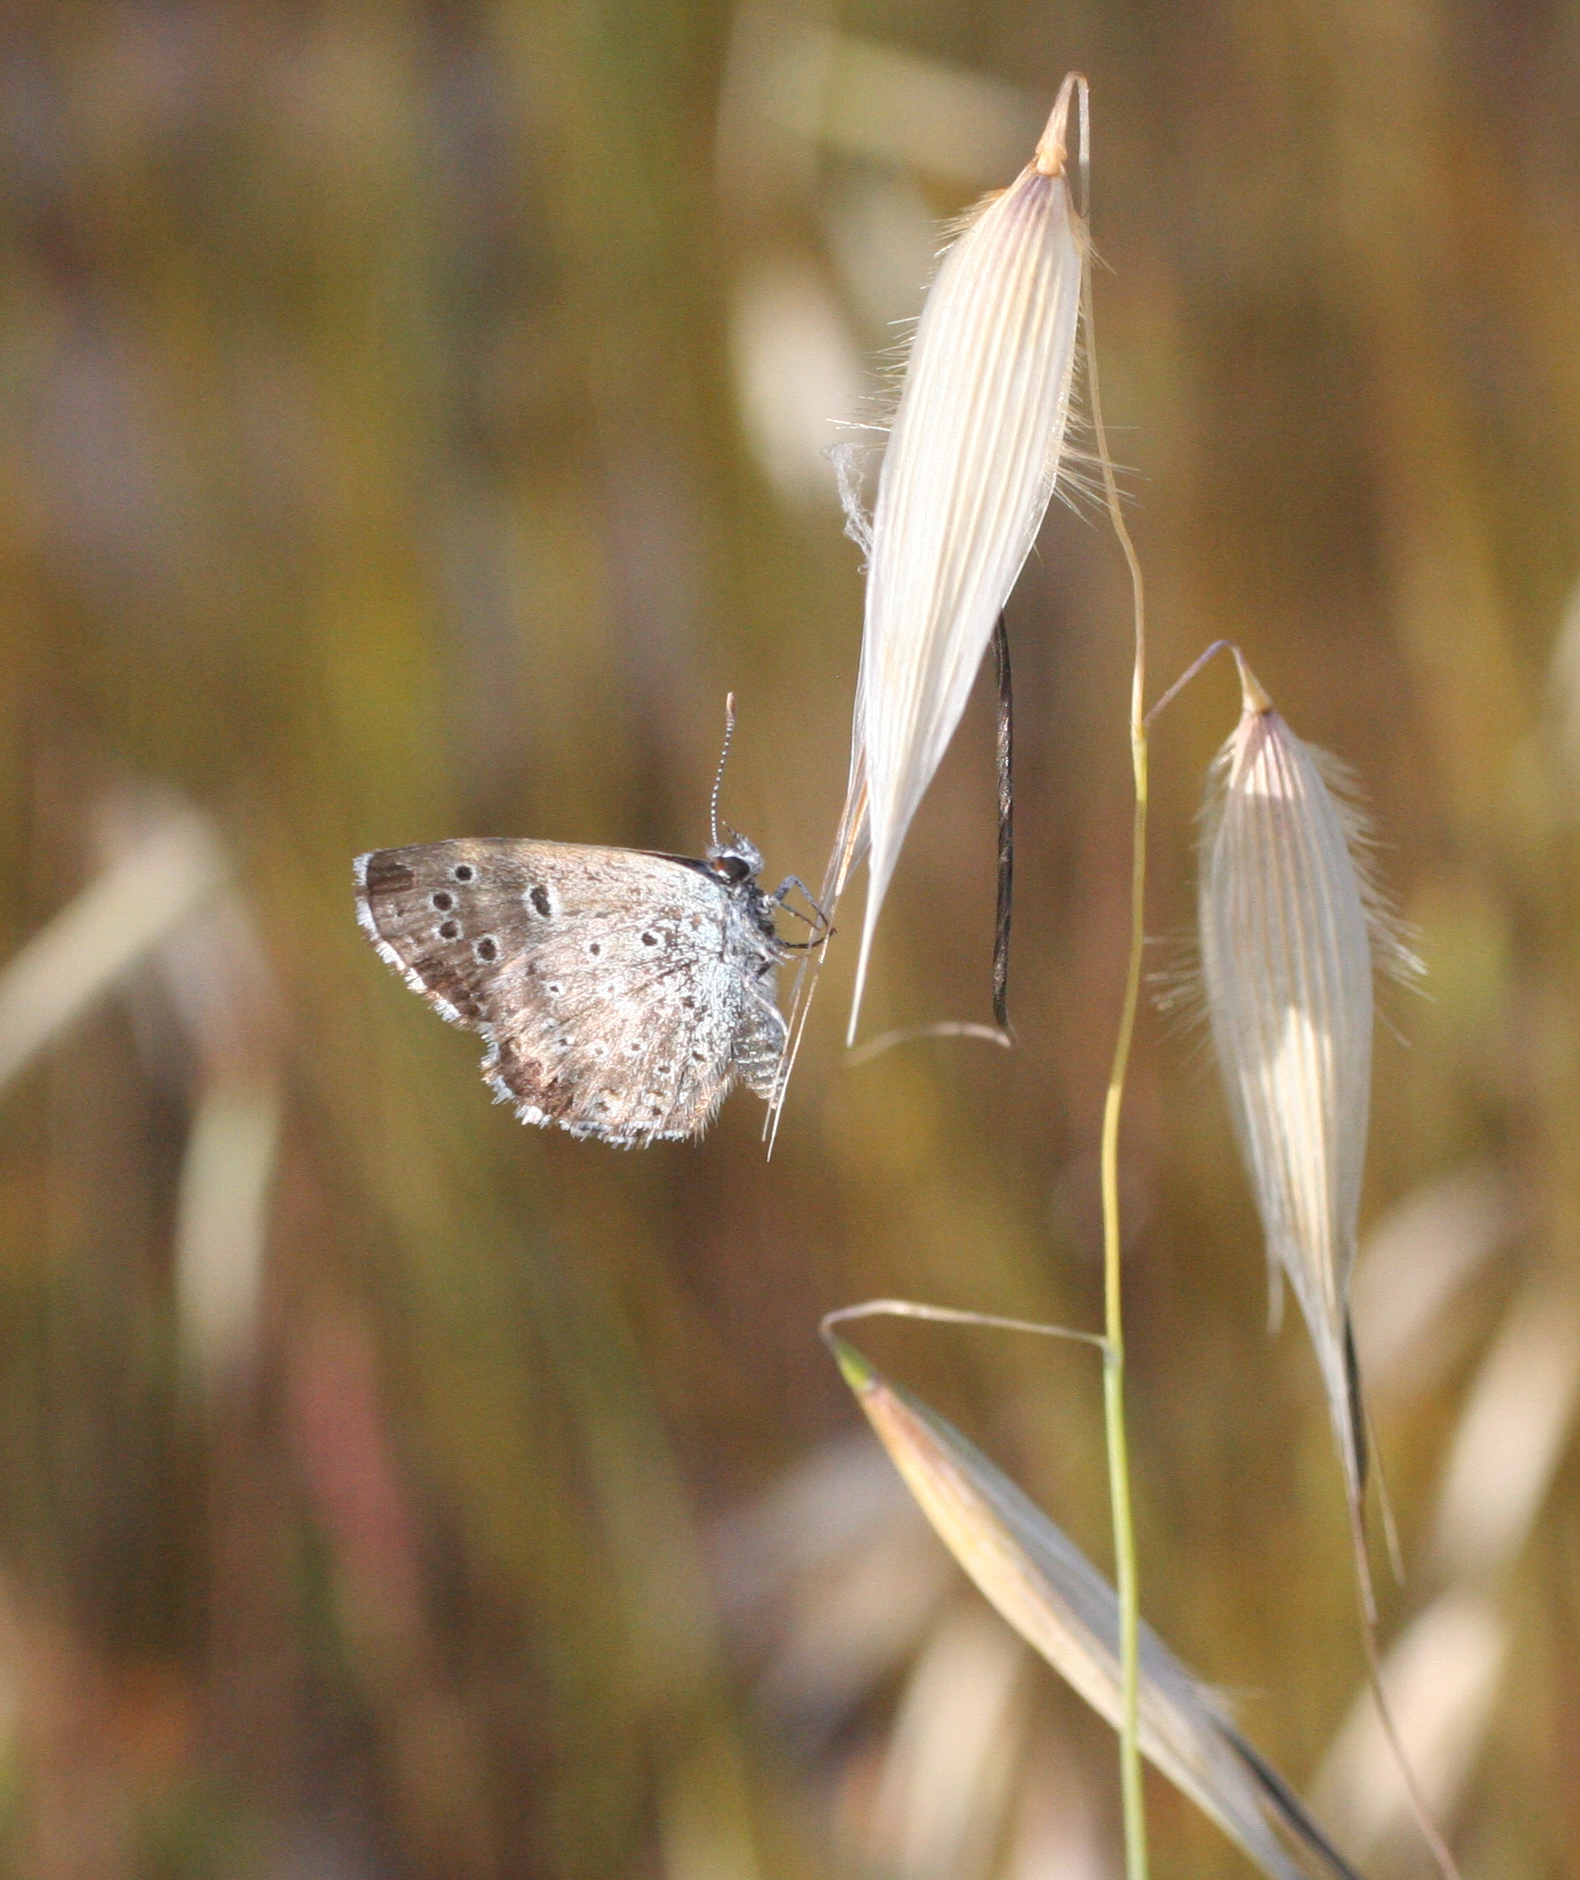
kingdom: Animalia
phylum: Arthropoda
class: Insecta
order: Lepidoptera
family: Lycaenidae
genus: Pseudophilotes
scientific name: Pseudophilotes abencerragus
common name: False baton blue
